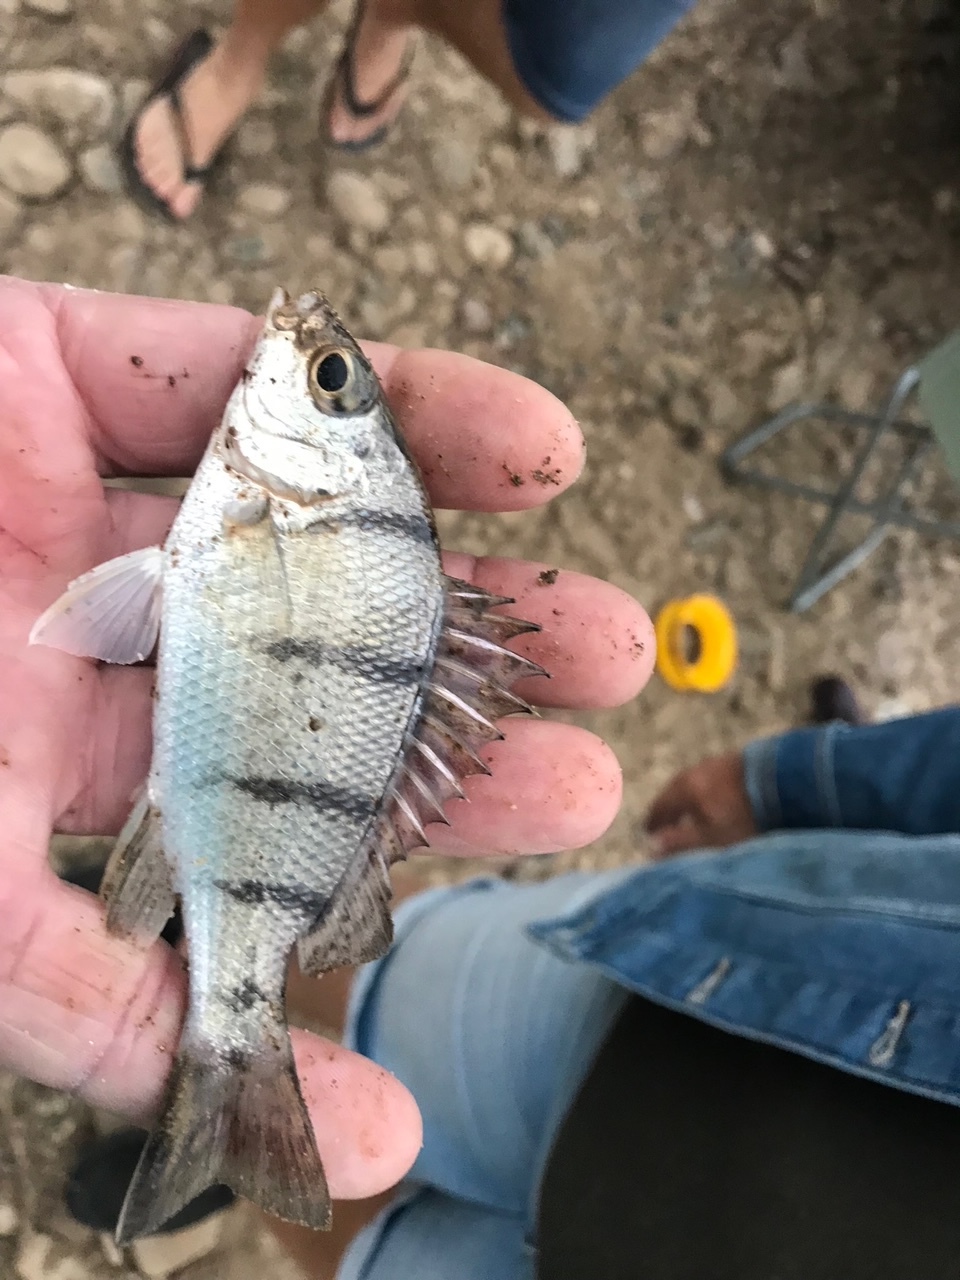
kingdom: Animalia
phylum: Chordata
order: Perciformes
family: Terapontidae
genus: Amniataba
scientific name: Amniataba percoides
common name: Banded grunter
